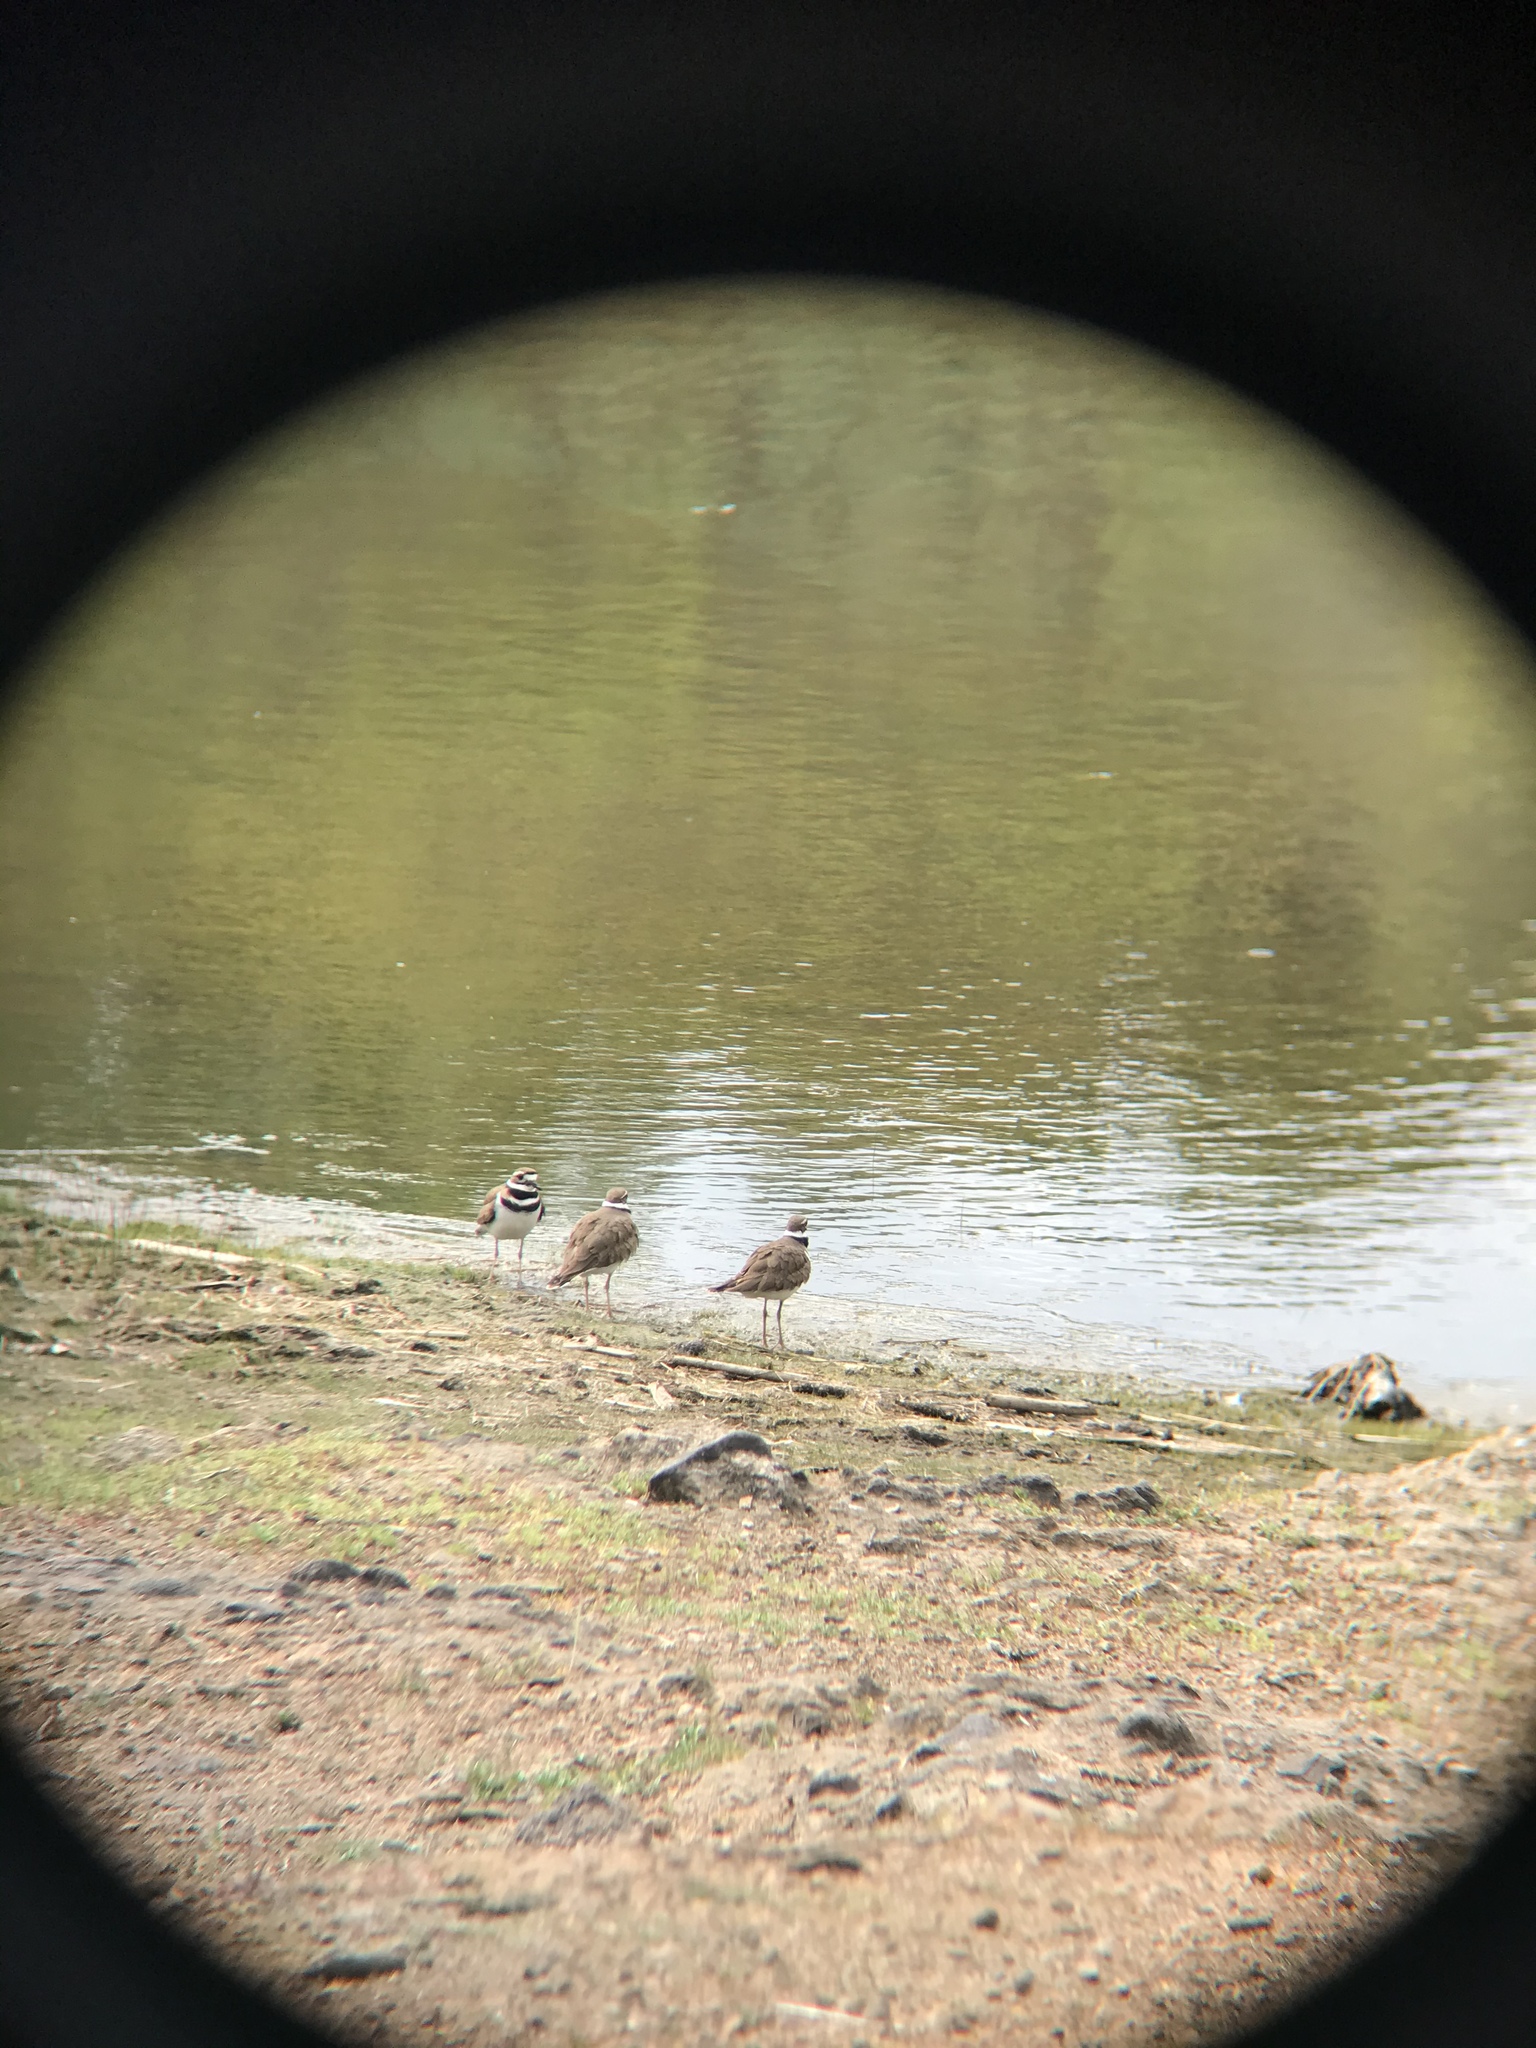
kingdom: Animalia
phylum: Chordata
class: Aves
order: Charadriiformes
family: Charadriidae
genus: Charadrius
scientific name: Charadrius vociferus
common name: Killdeer
